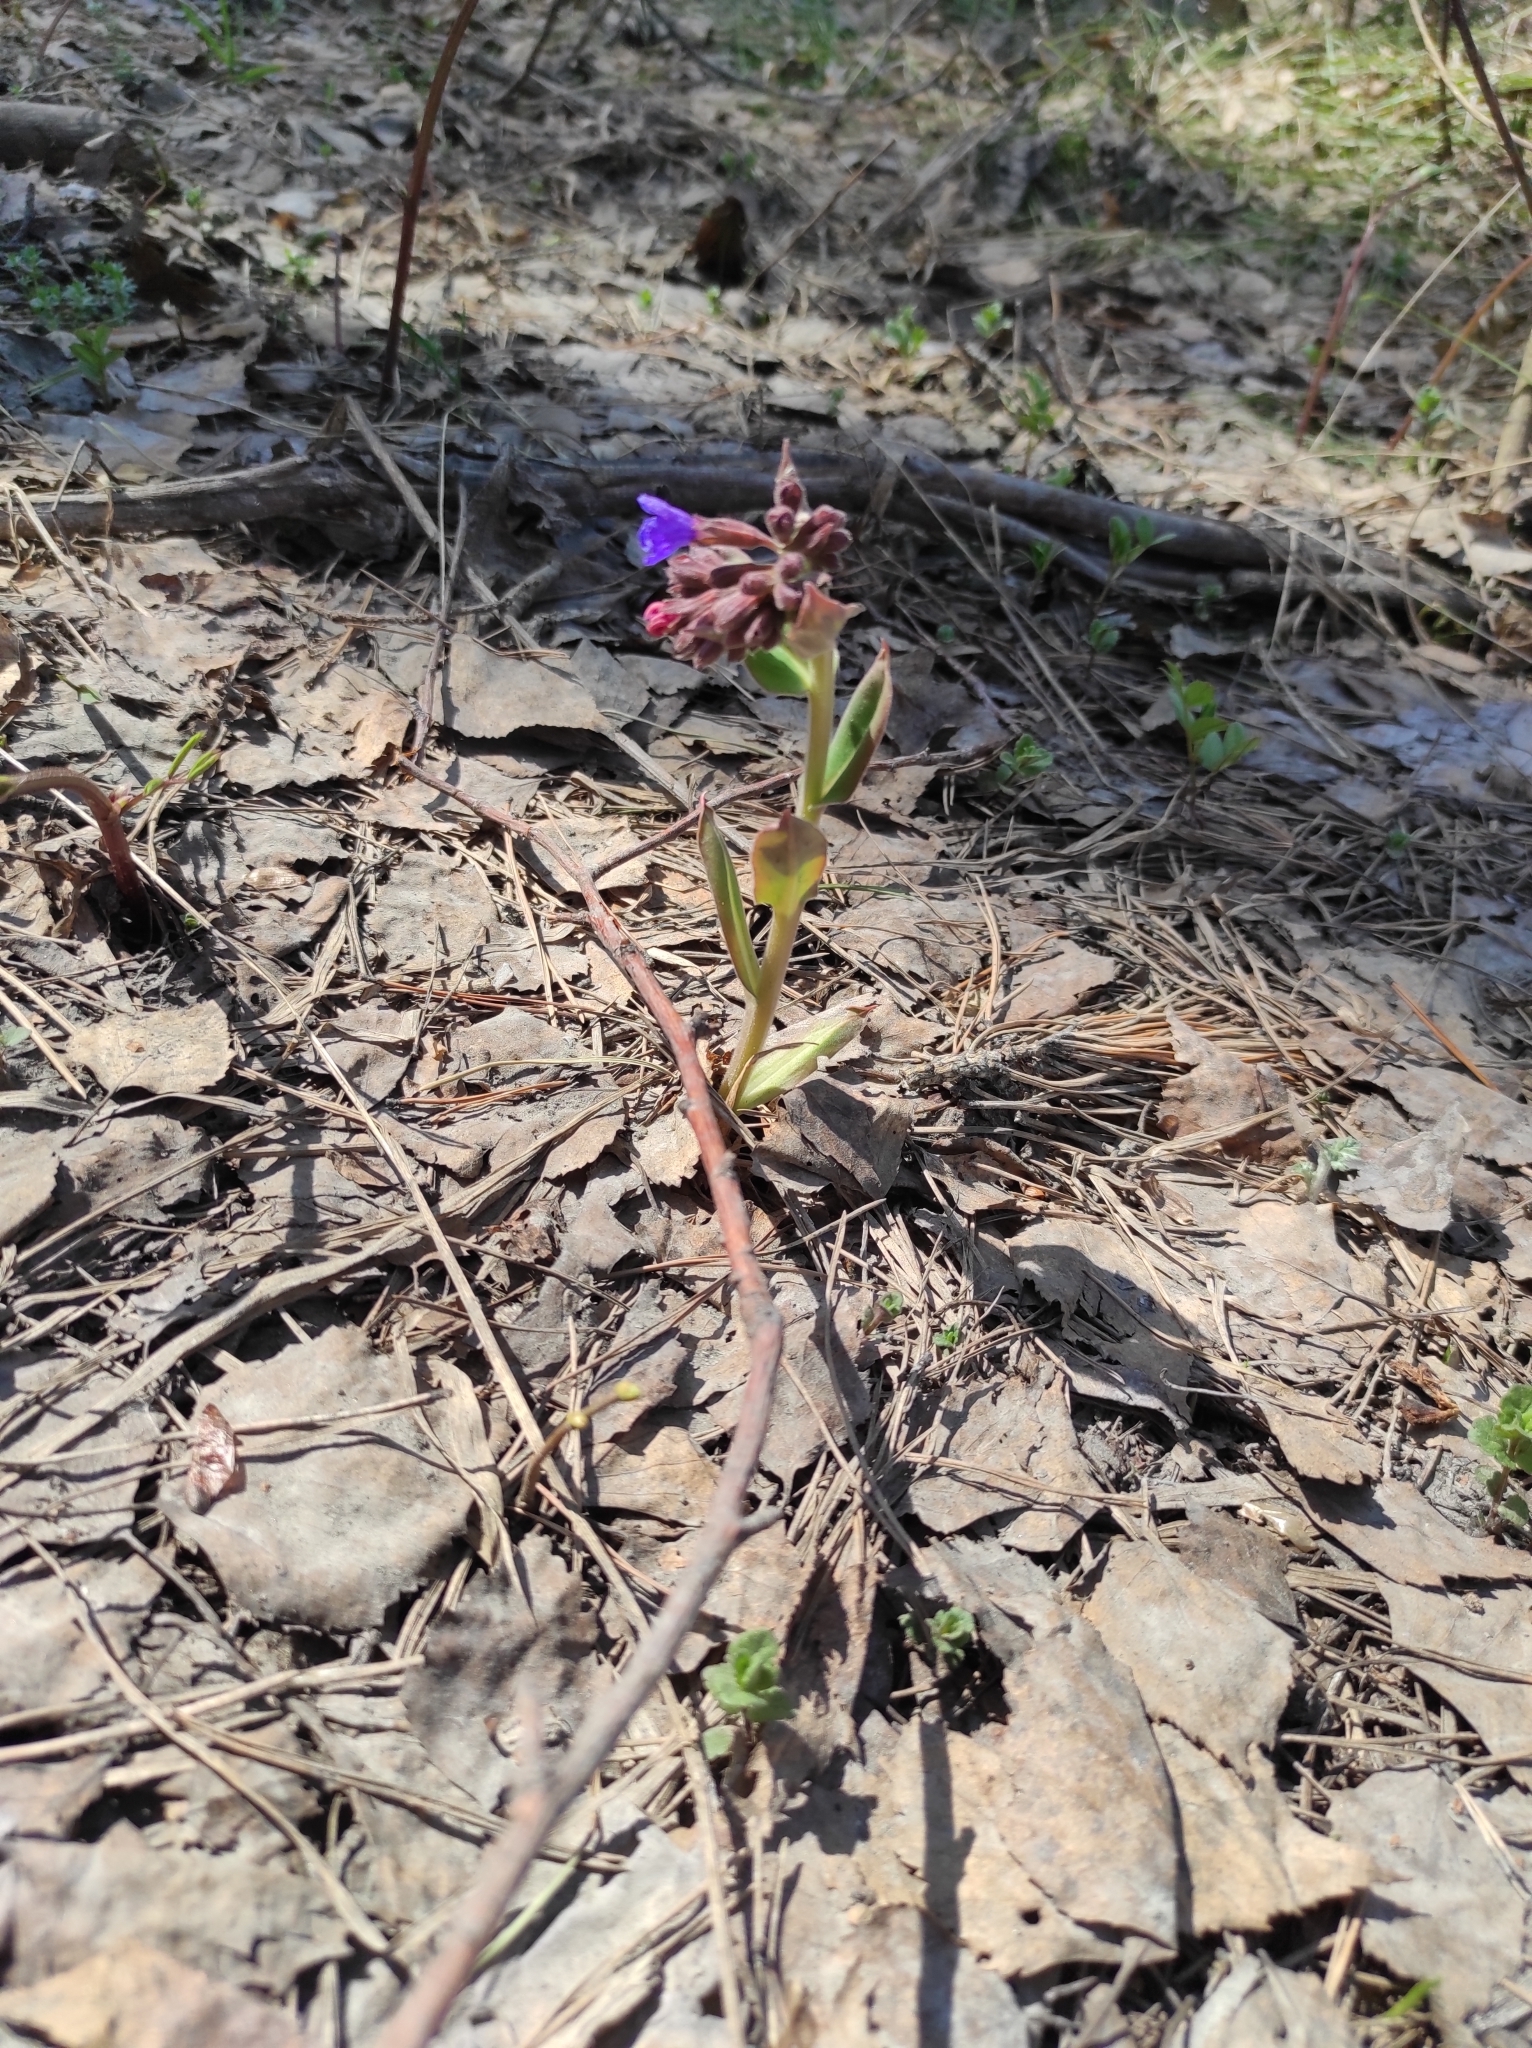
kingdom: Plantae
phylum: Tracheophyta
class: Magnoliopsida
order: Boraginales
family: Boraginaceae
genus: Pulmonaria
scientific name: Pulmonaria mollis
